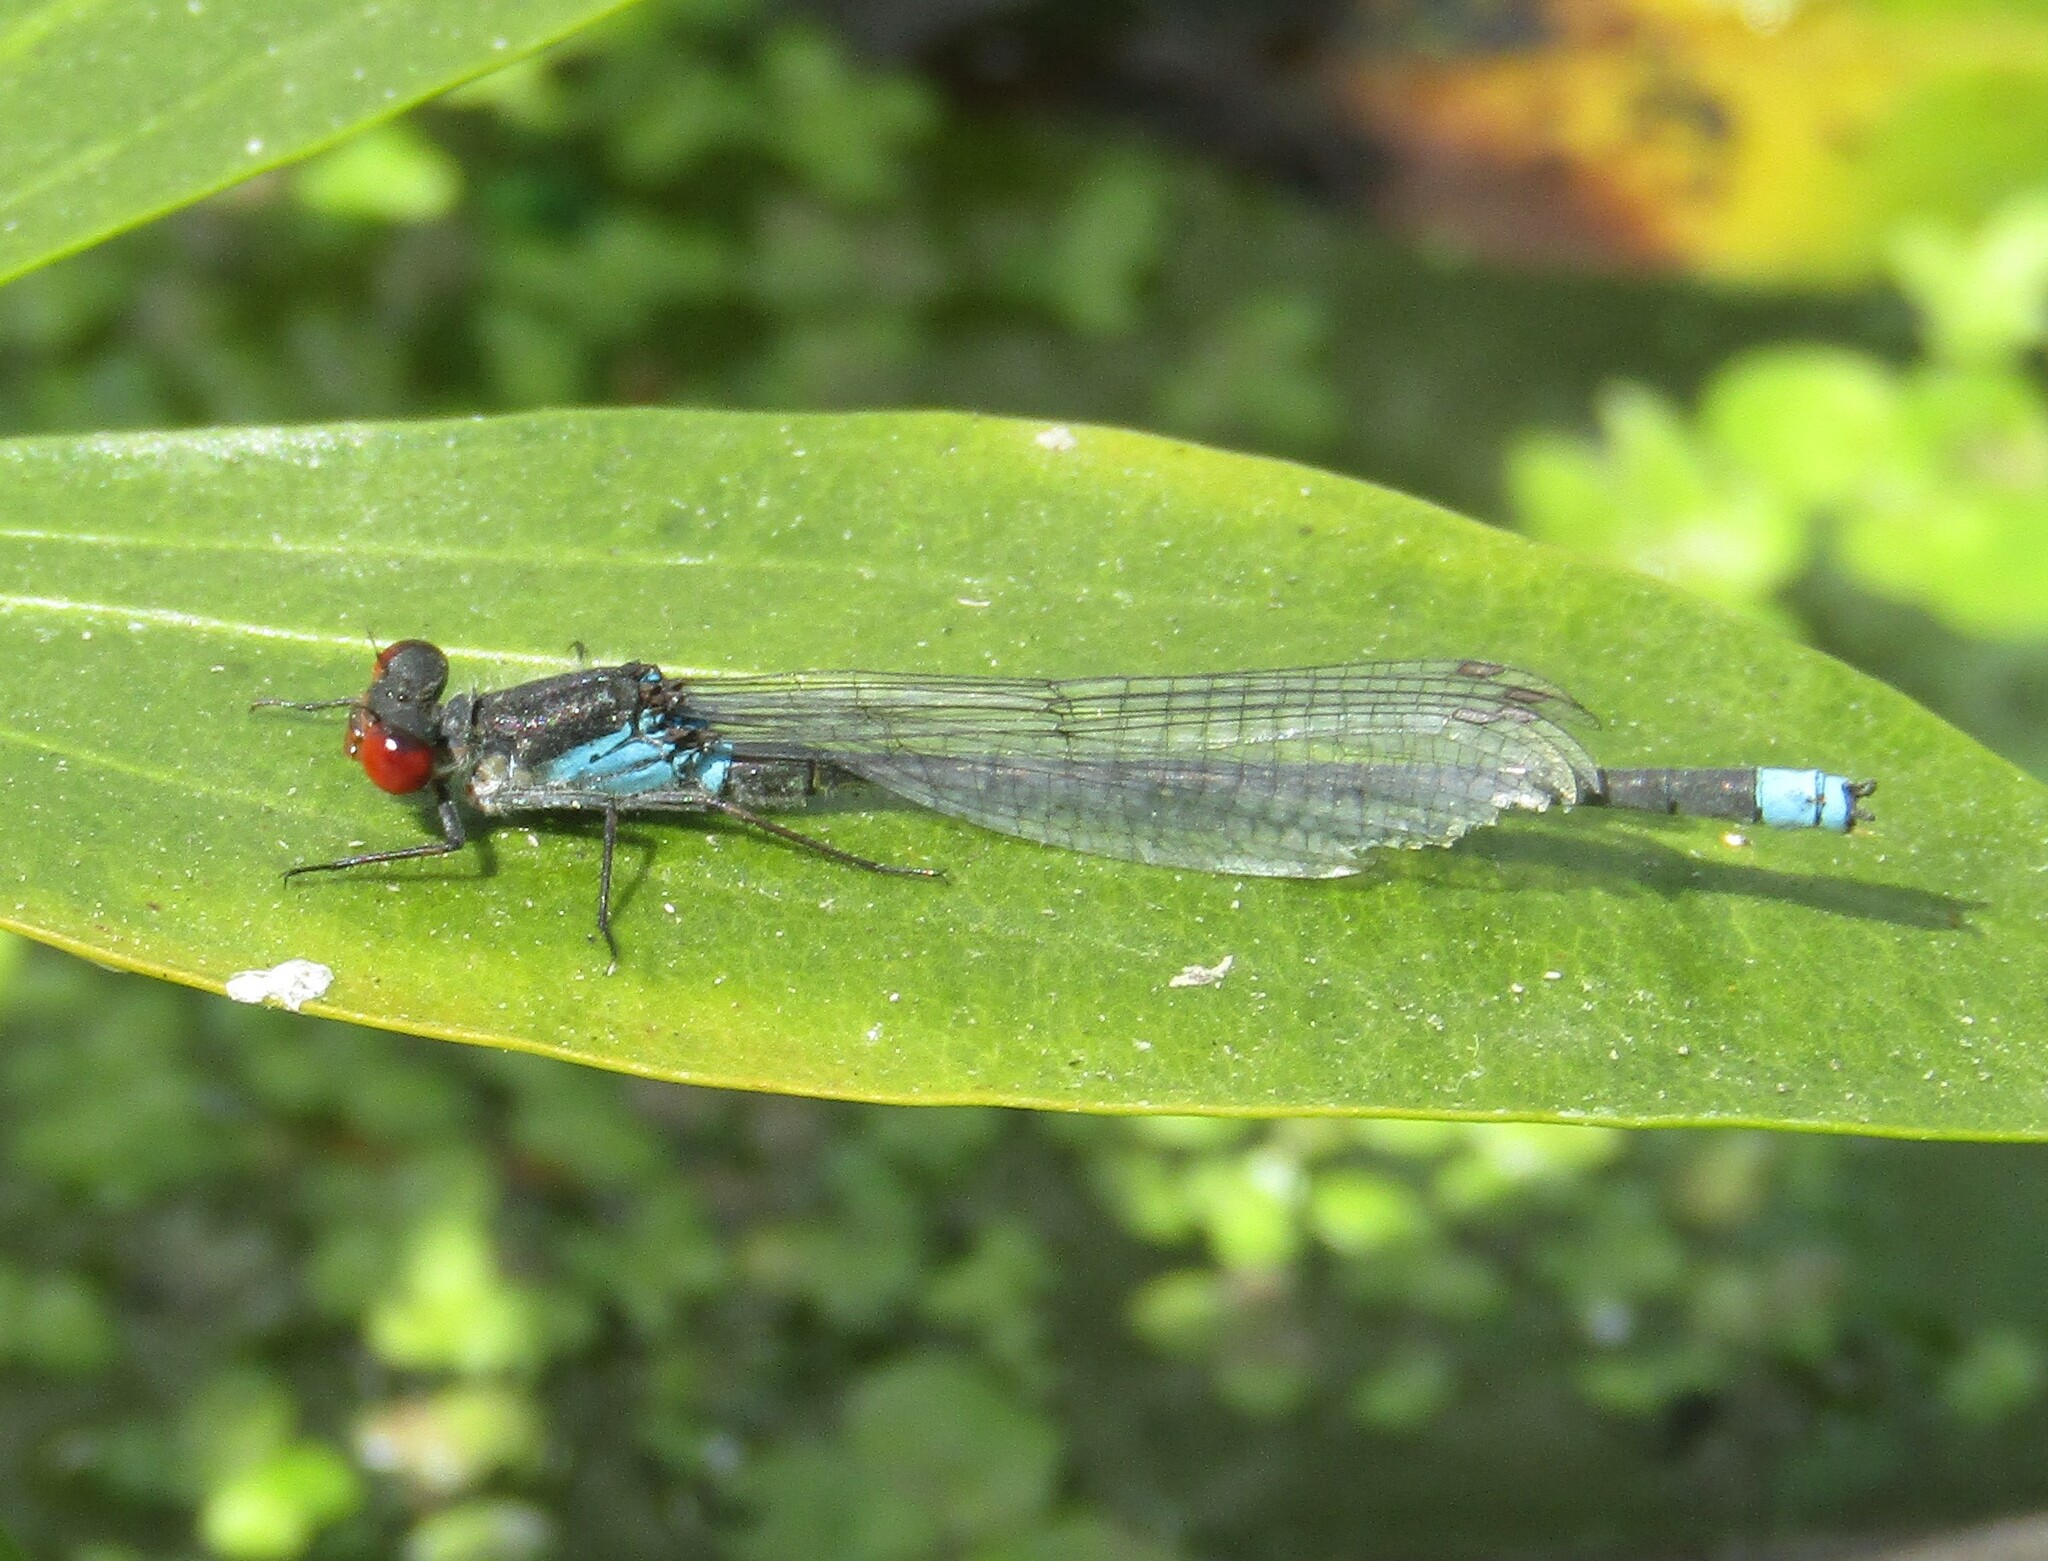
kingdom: Animalia
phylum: Arthropoda
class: Insecta
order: Odonata
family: Coenagrionidae
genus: Erythromma
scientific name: Erythromma najas
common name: Red-eyed damselfly
